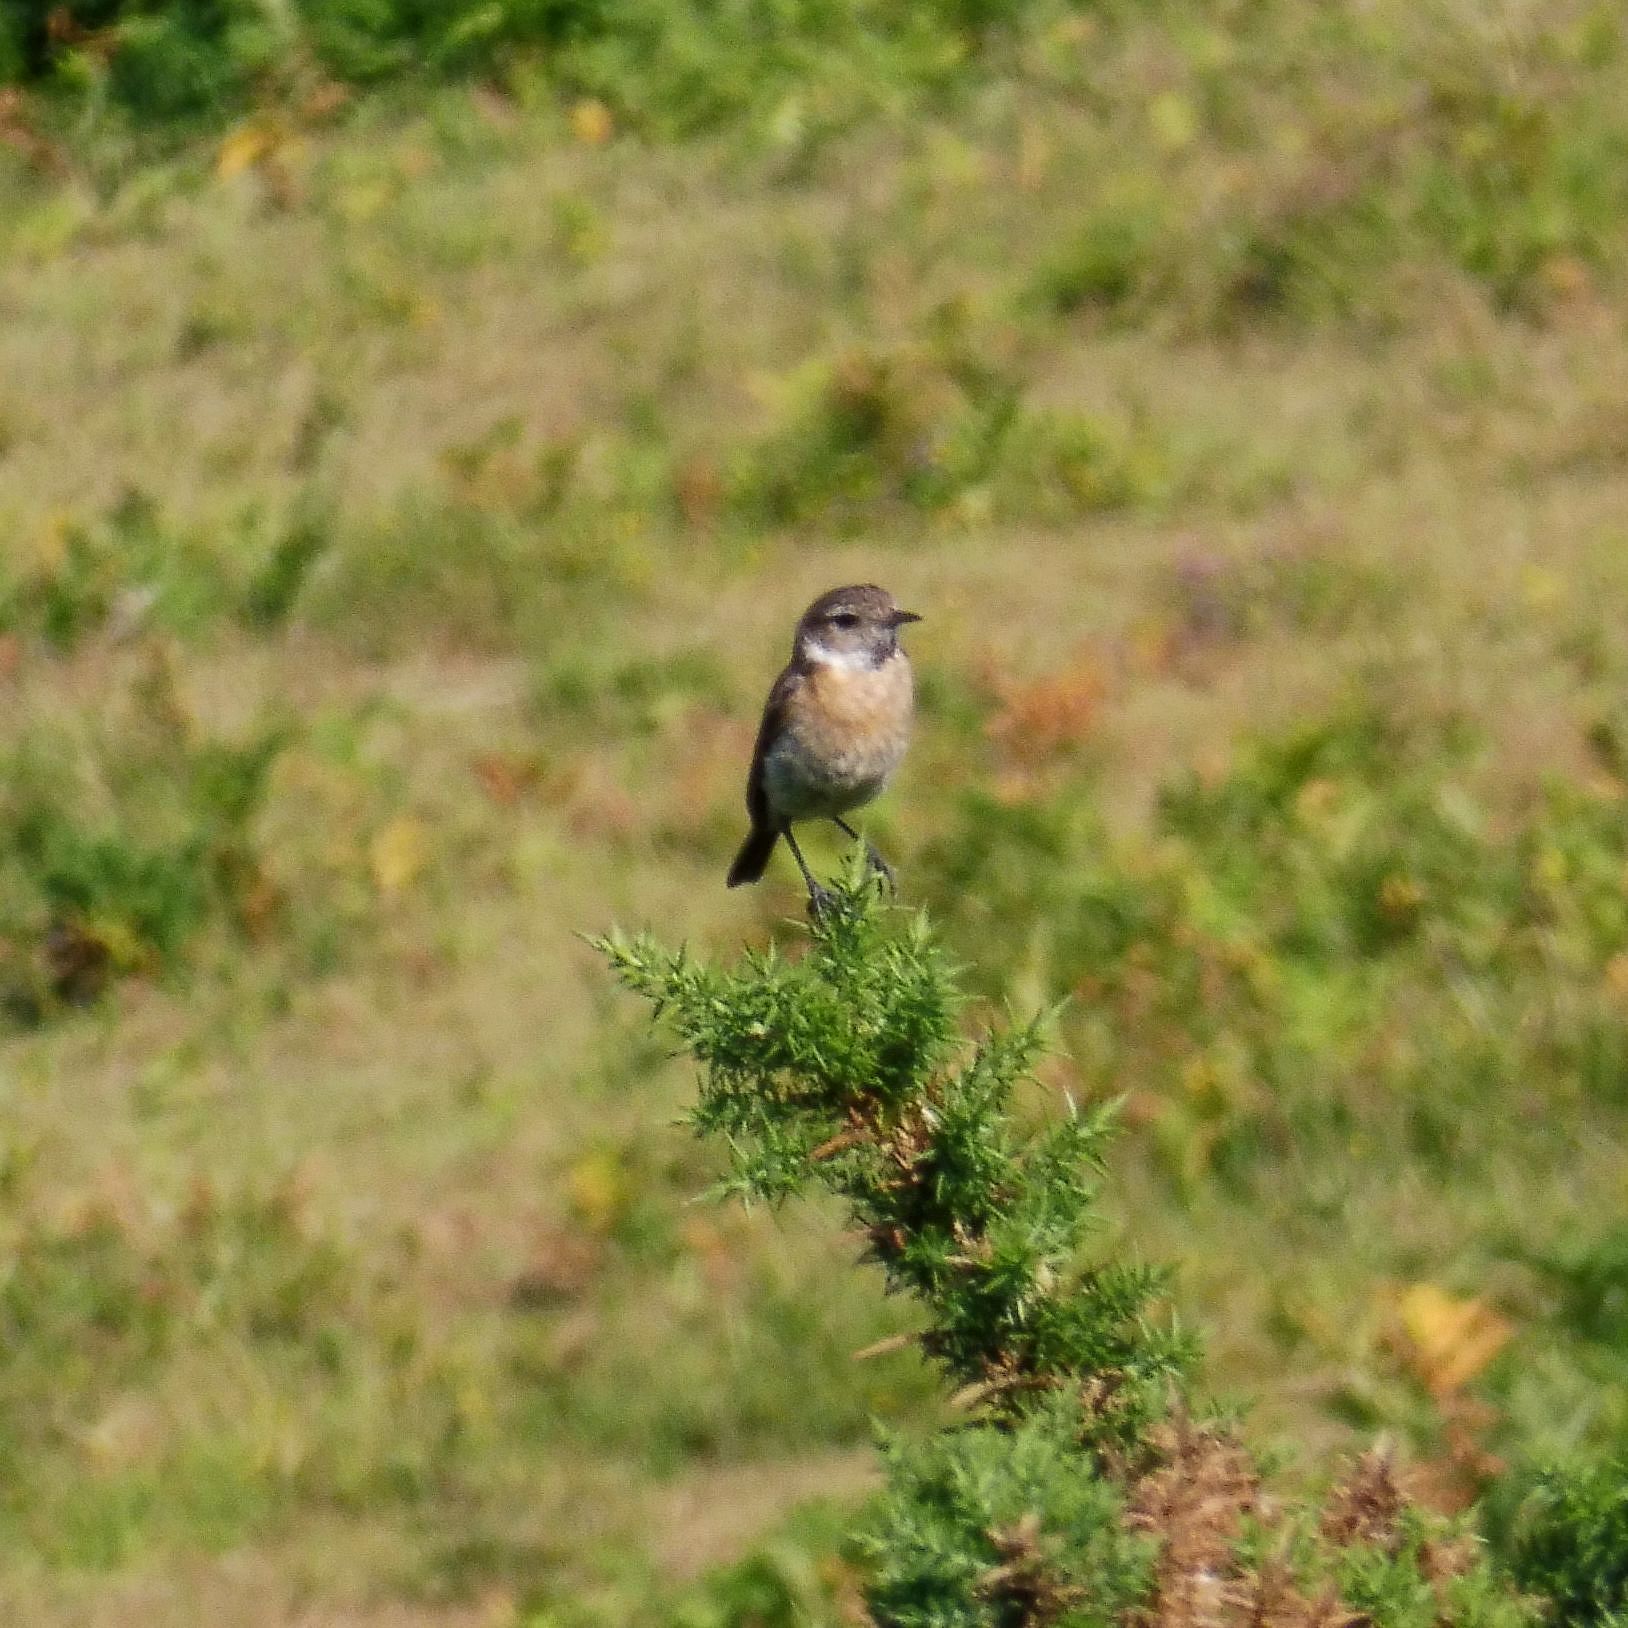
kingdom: Animalia
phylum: Chordata
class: Aves
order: Passeriformes
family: Muscicapidae
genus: Saxicola
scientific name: Saxicola rubicola
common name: European stonechat
